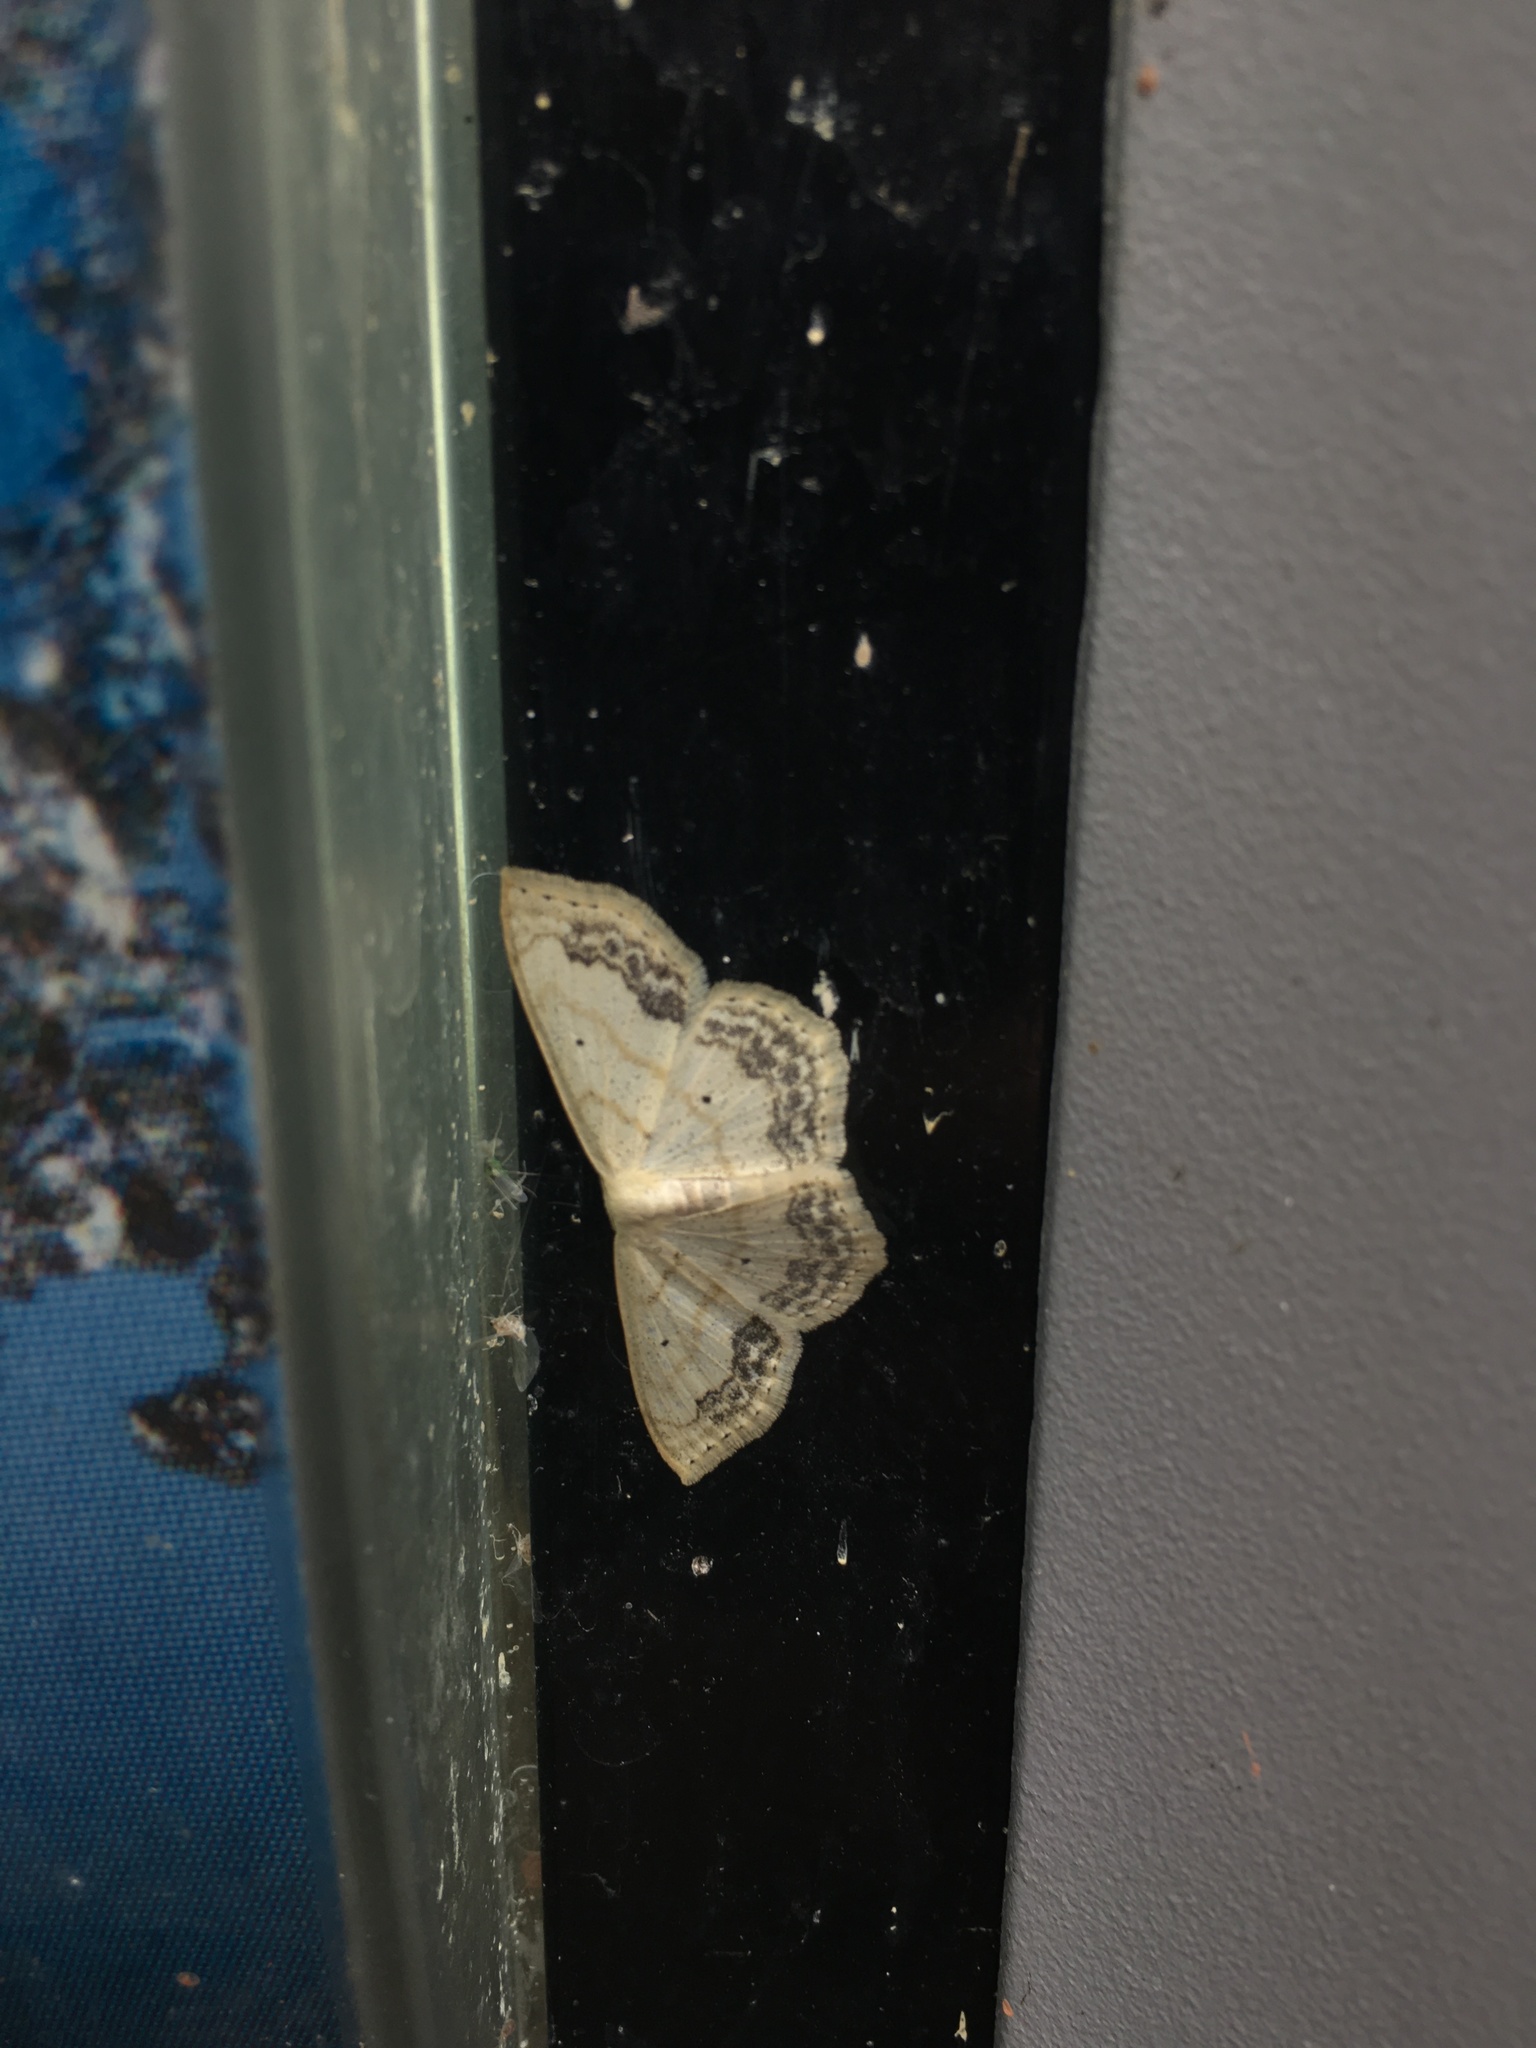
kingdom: Animalia
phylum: Arthropoda
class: Insecta
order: Lepidoptera
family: Geometridae
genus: Scopula
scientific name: Scopula limboundata
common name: Large lace border
